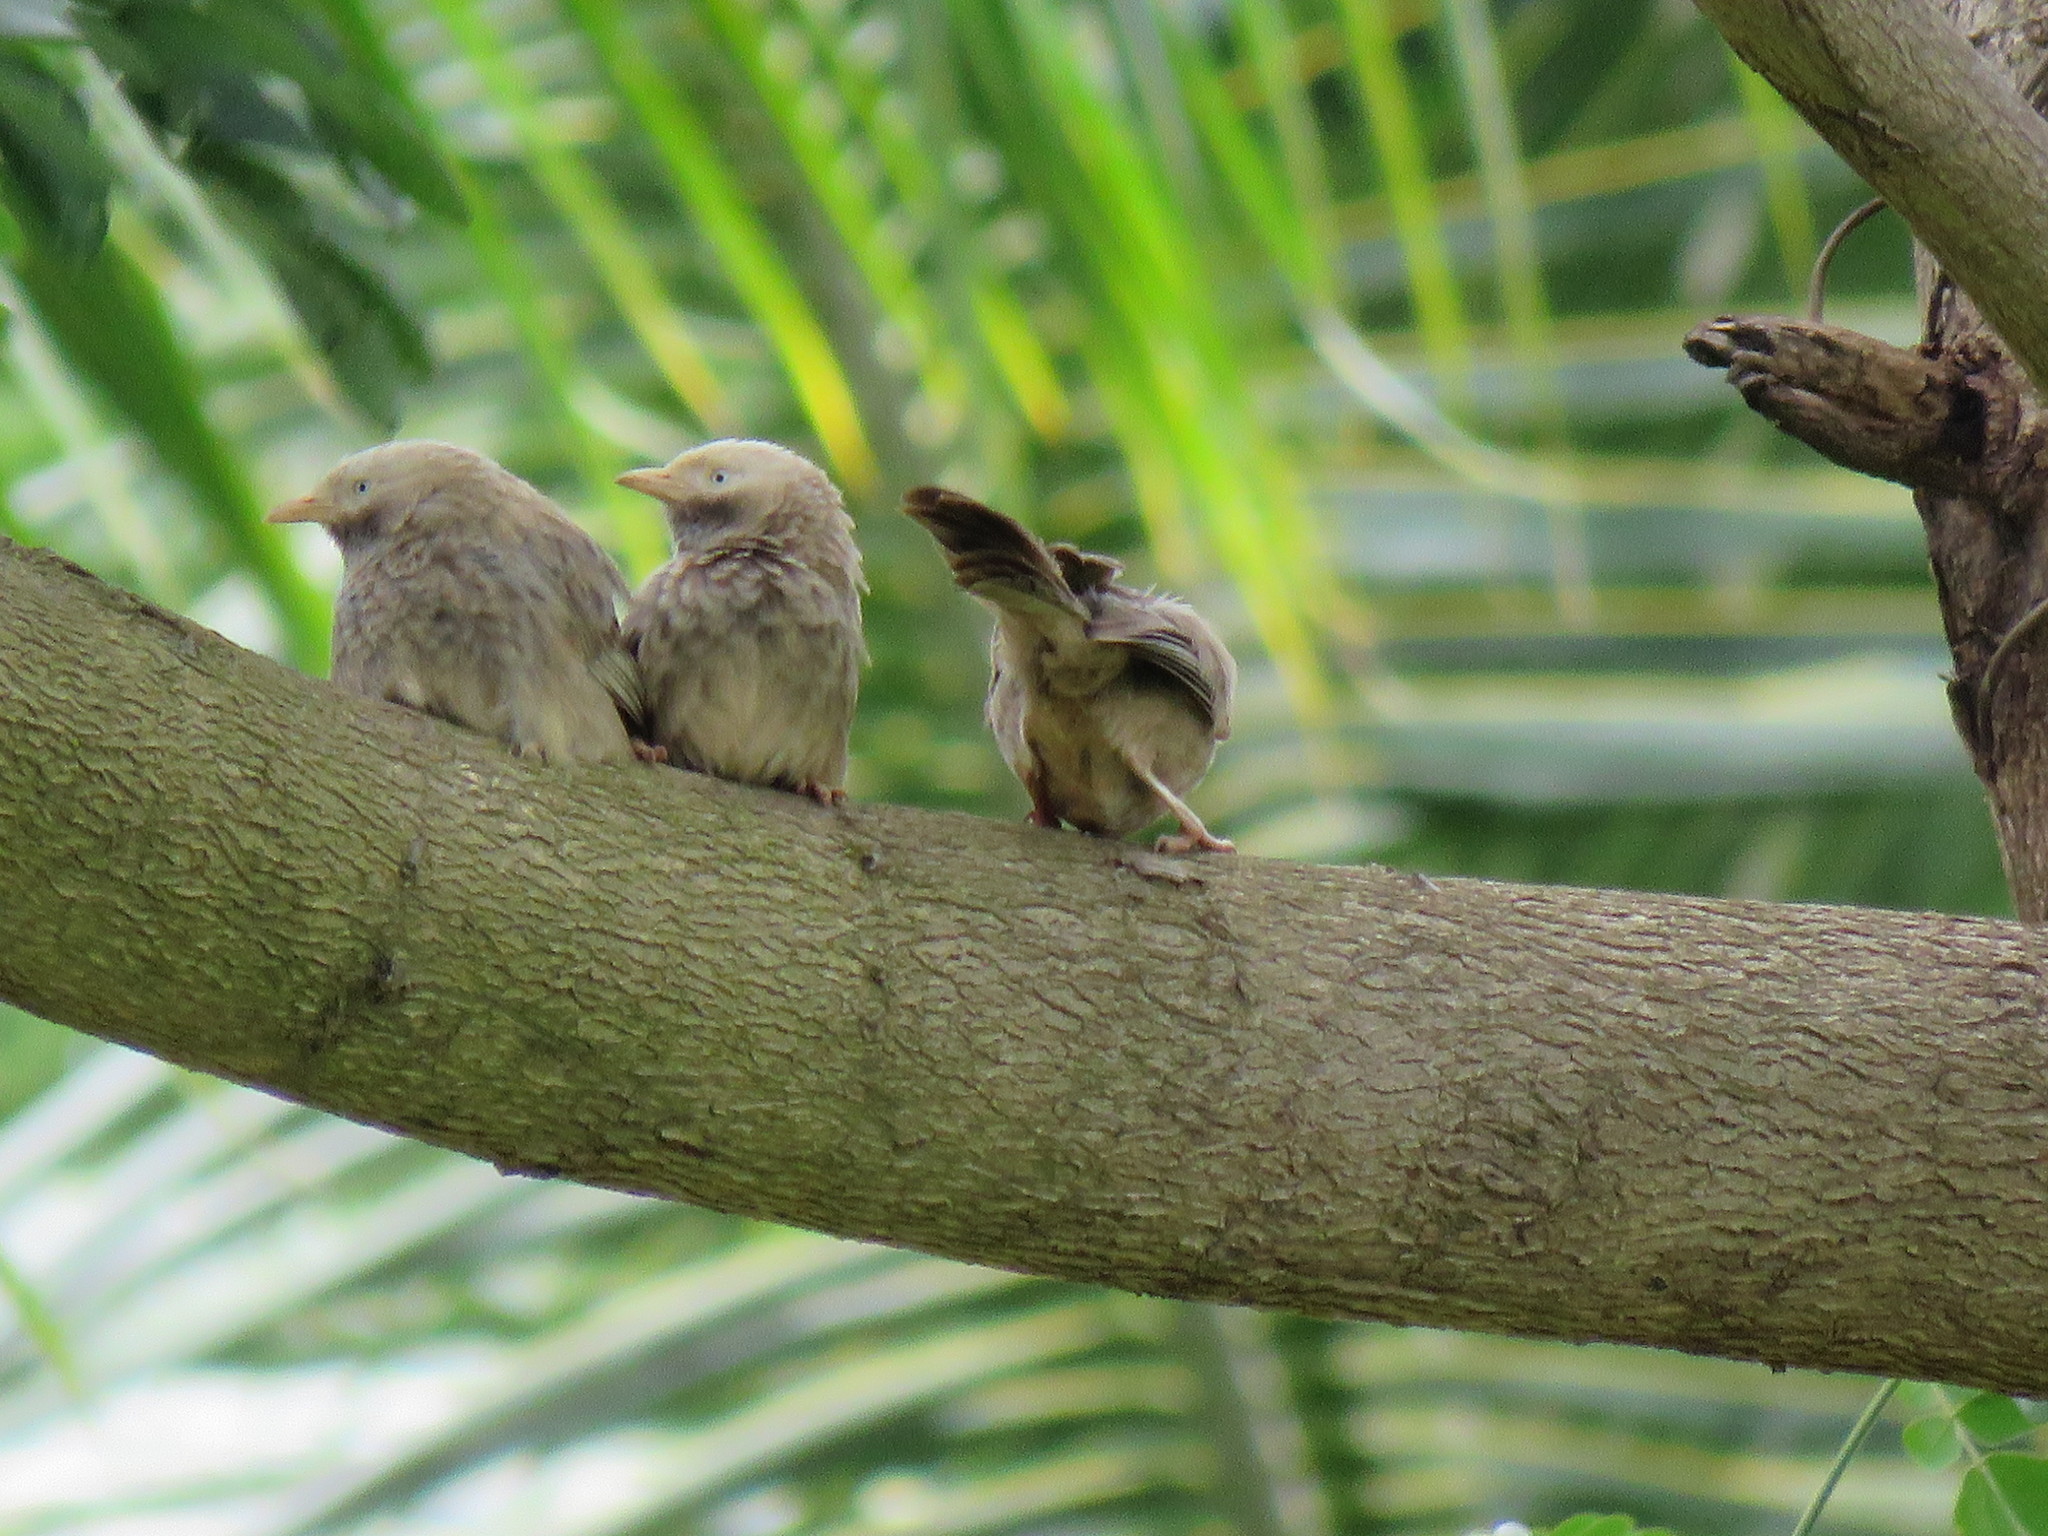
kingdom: Animalia
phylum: Chordata
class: Aves
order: Passeriformes
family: Leiothrichidae
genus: Turdoides
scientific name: Turdoides affinis
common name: Yellow-billed babbler
